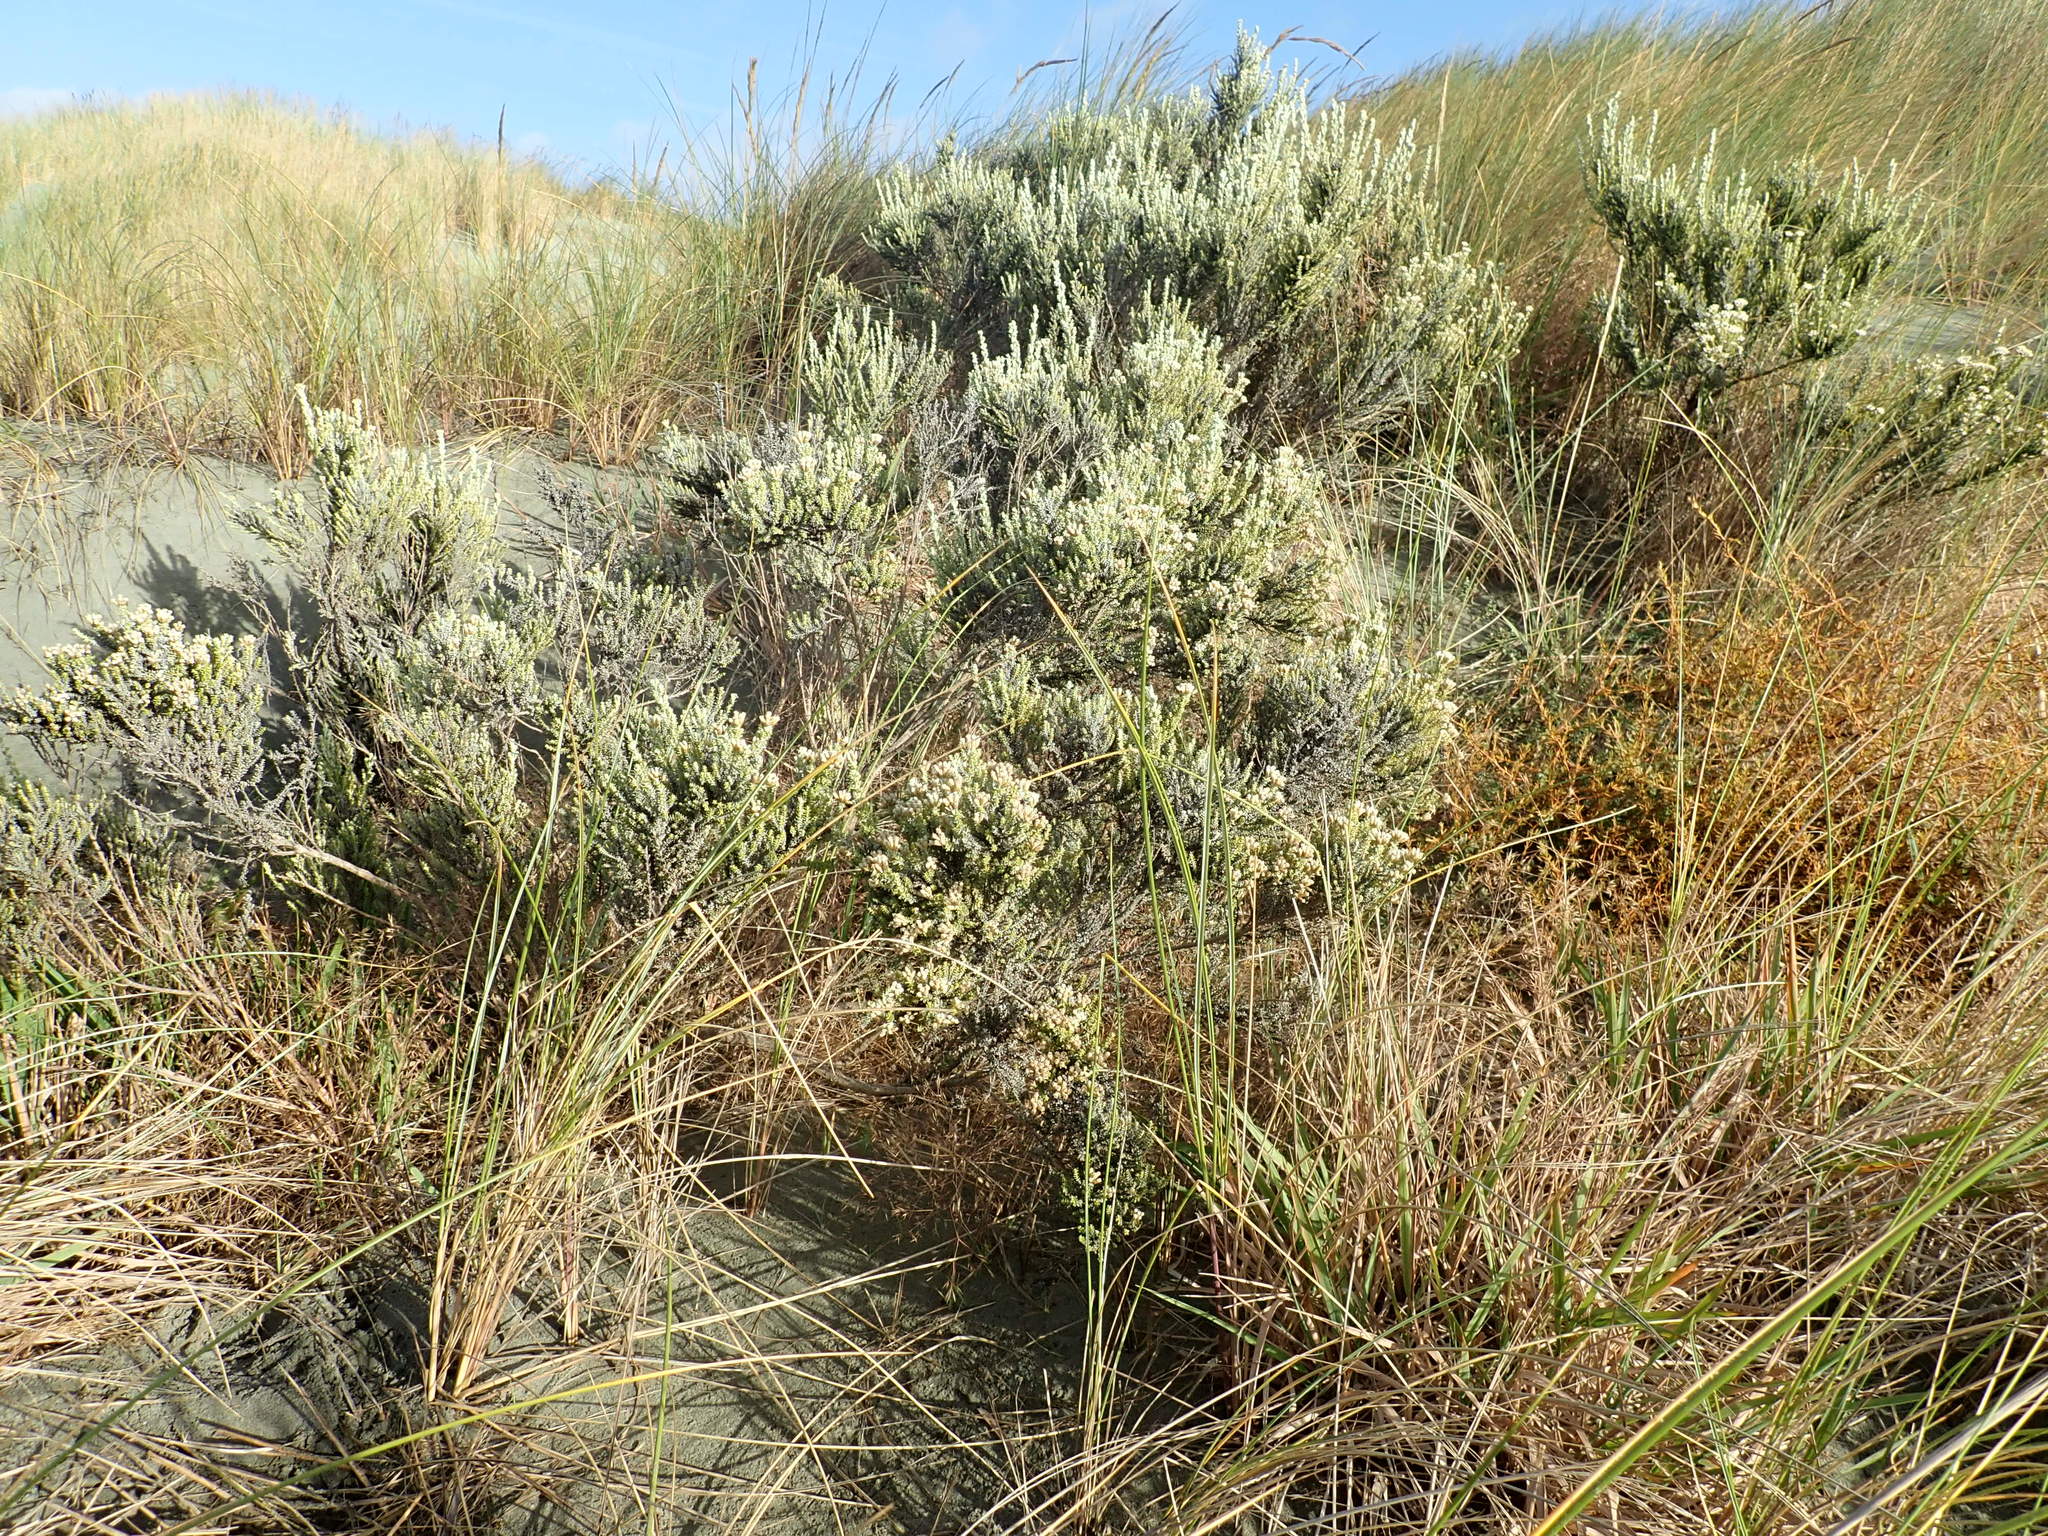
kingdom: Plantae
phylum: Tracheophyta
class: Magnoliopsida
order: Asterales
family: Asteraceae
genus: Ozothamnus
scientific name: Ozothamnus leptophyllus
